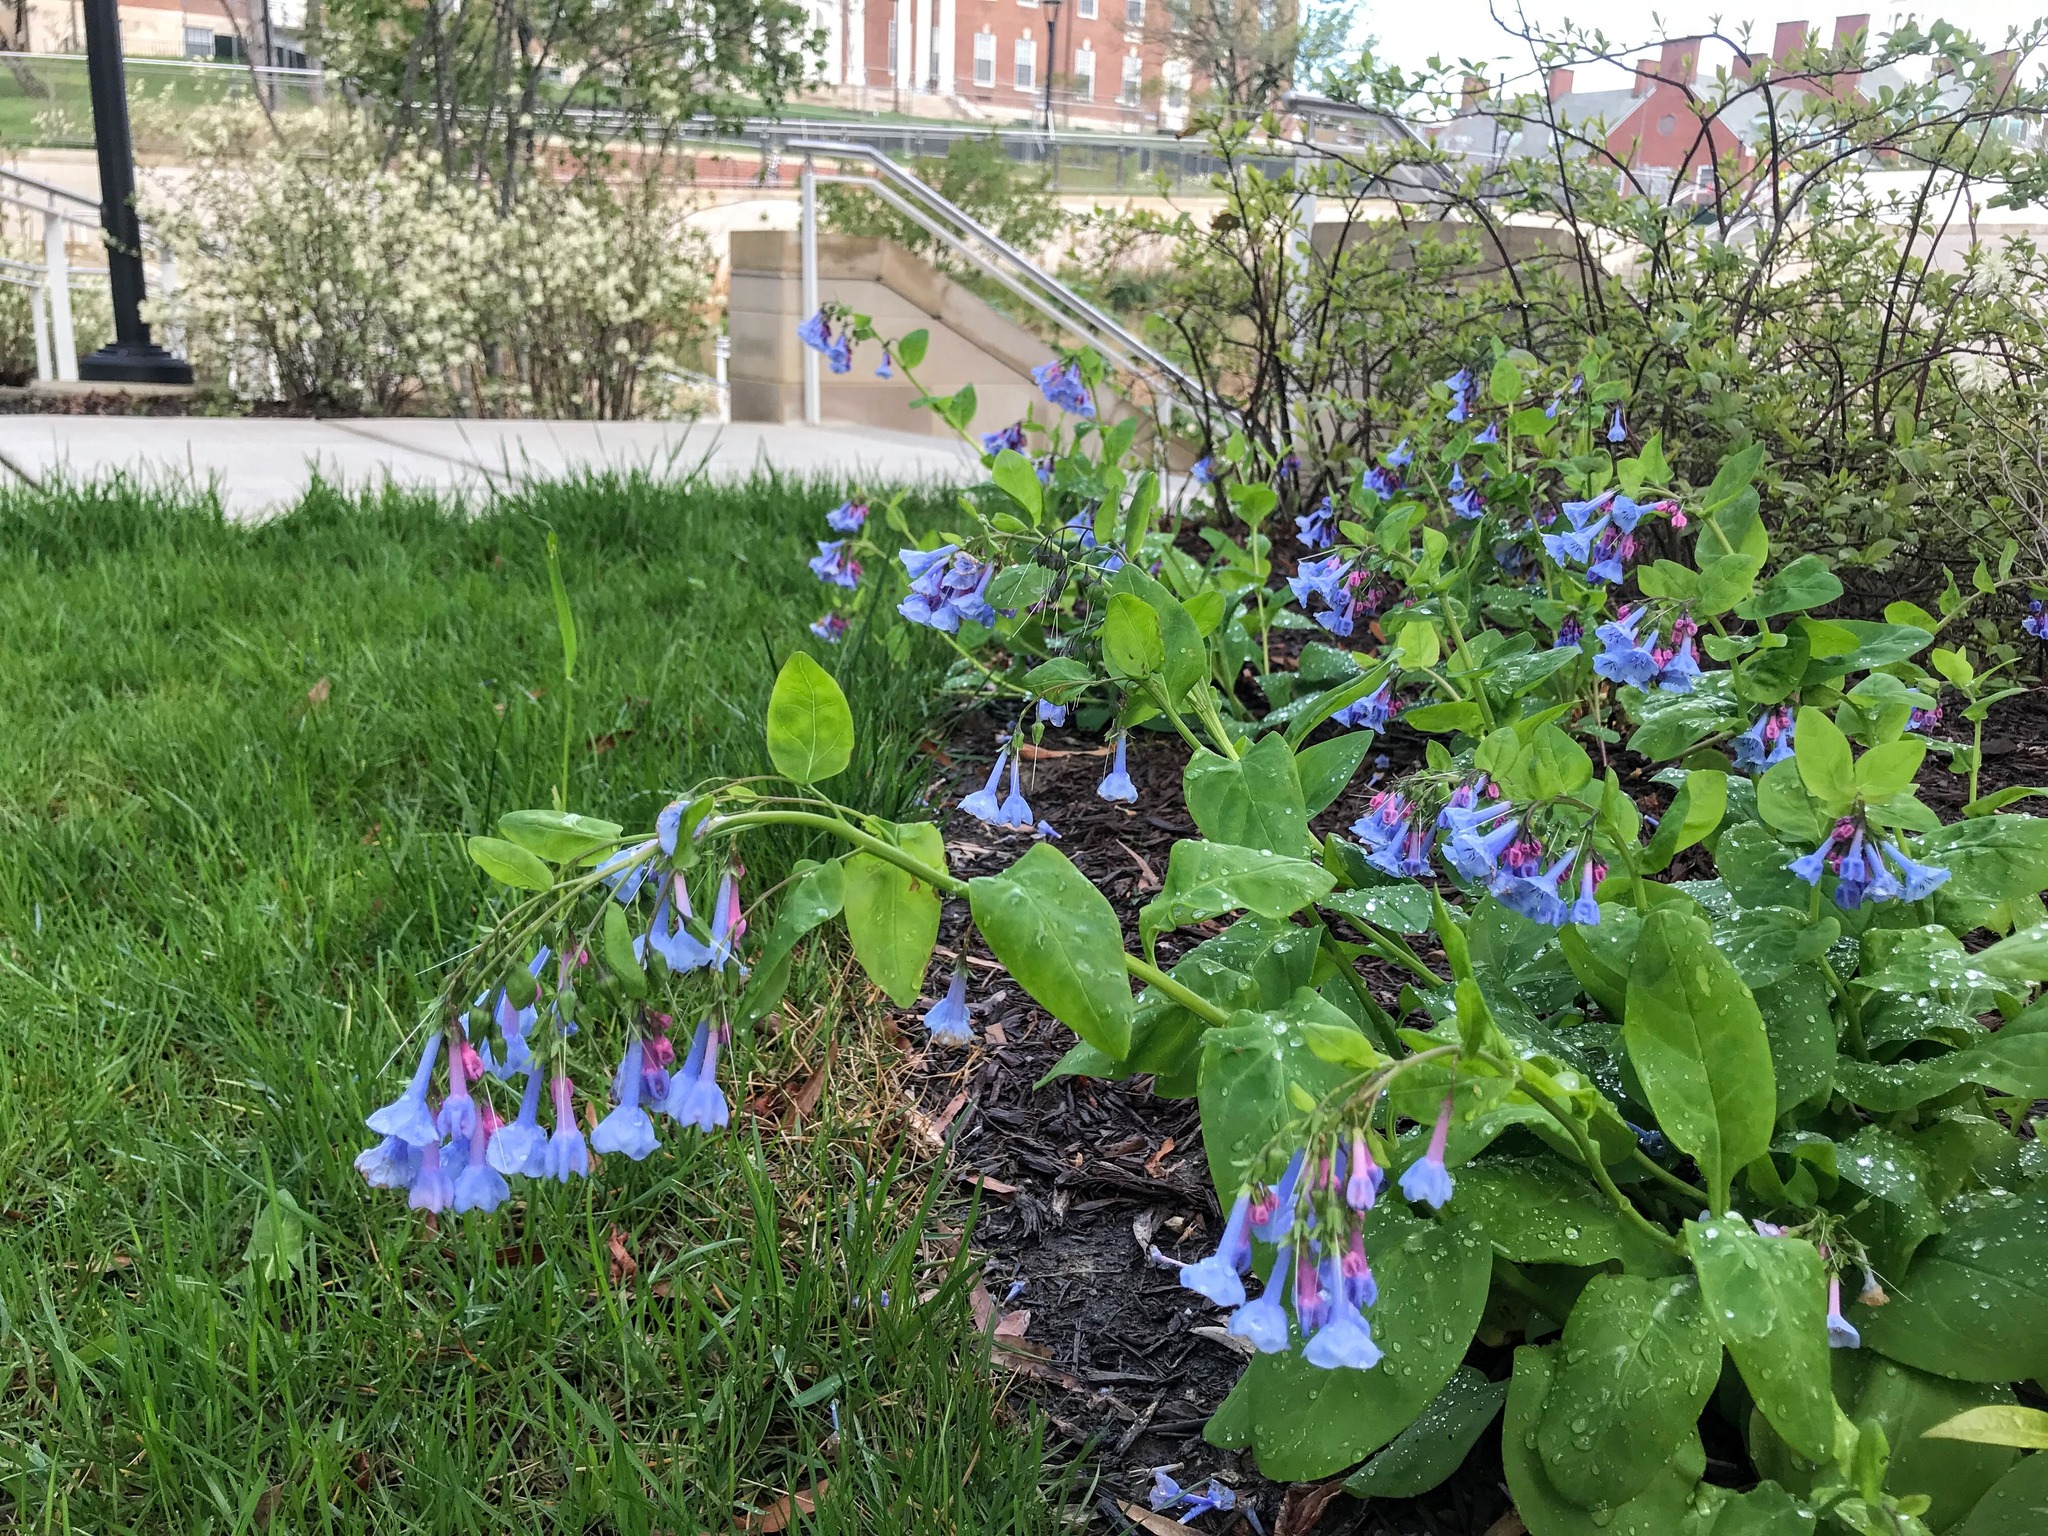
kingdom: Plantae
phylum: Tracheophyta
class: Magnoliopsida
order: Boraginales
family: Boraginaceae
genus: Mertensia
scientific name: Mertensia virginica
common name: Virginia bluebells
